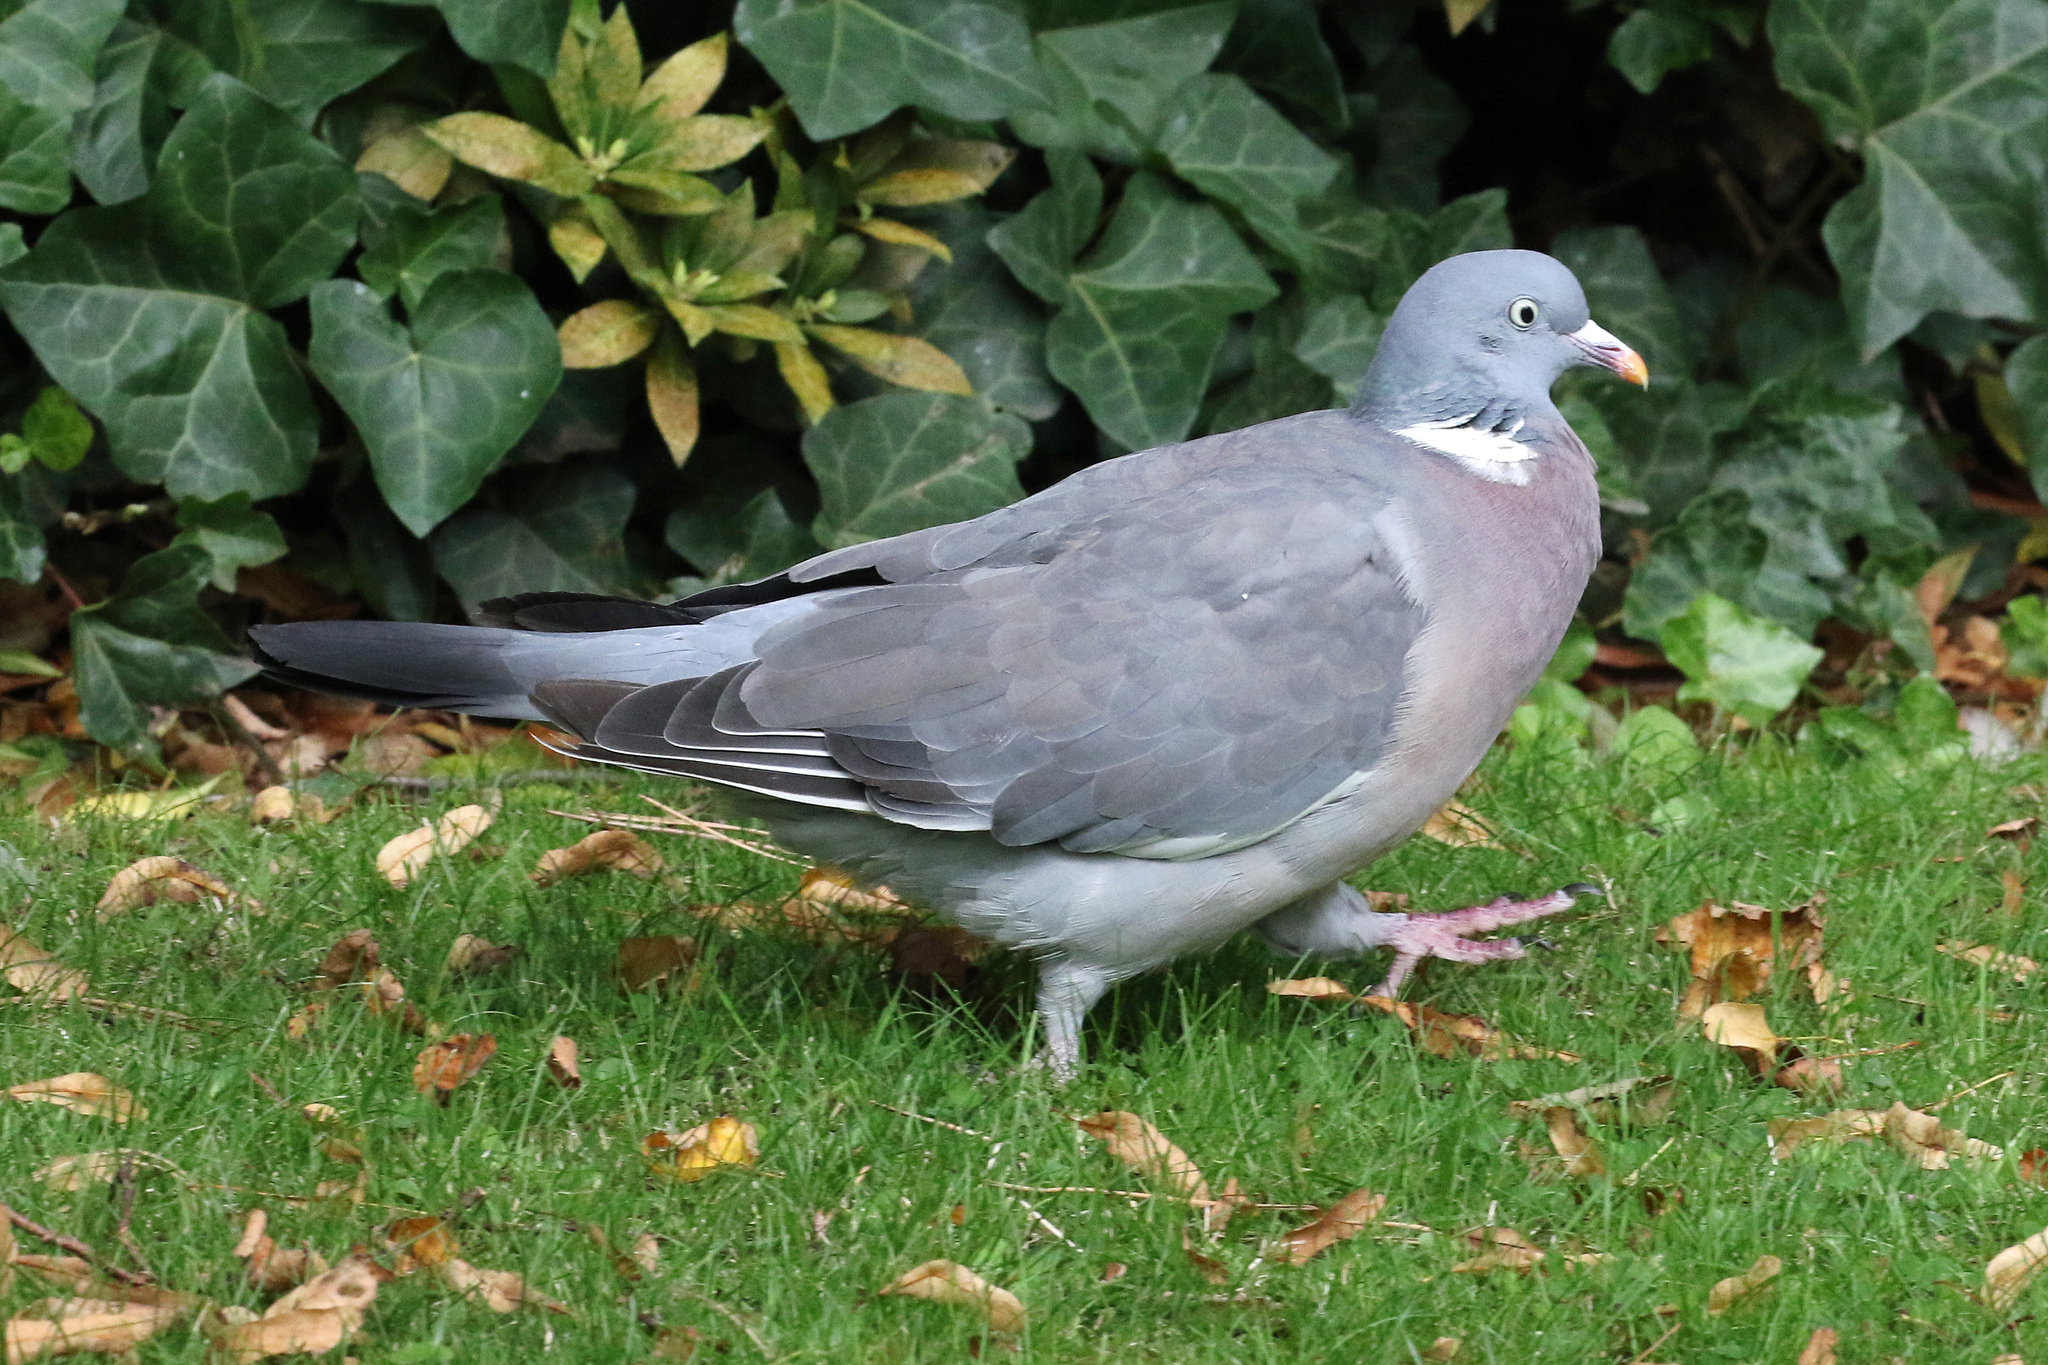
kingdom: Animalia
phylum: Chordata
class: Aves
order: Columbiformes
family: Columbidae
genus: Columba
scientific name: Columba palumbus
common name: Common wood pigeon
